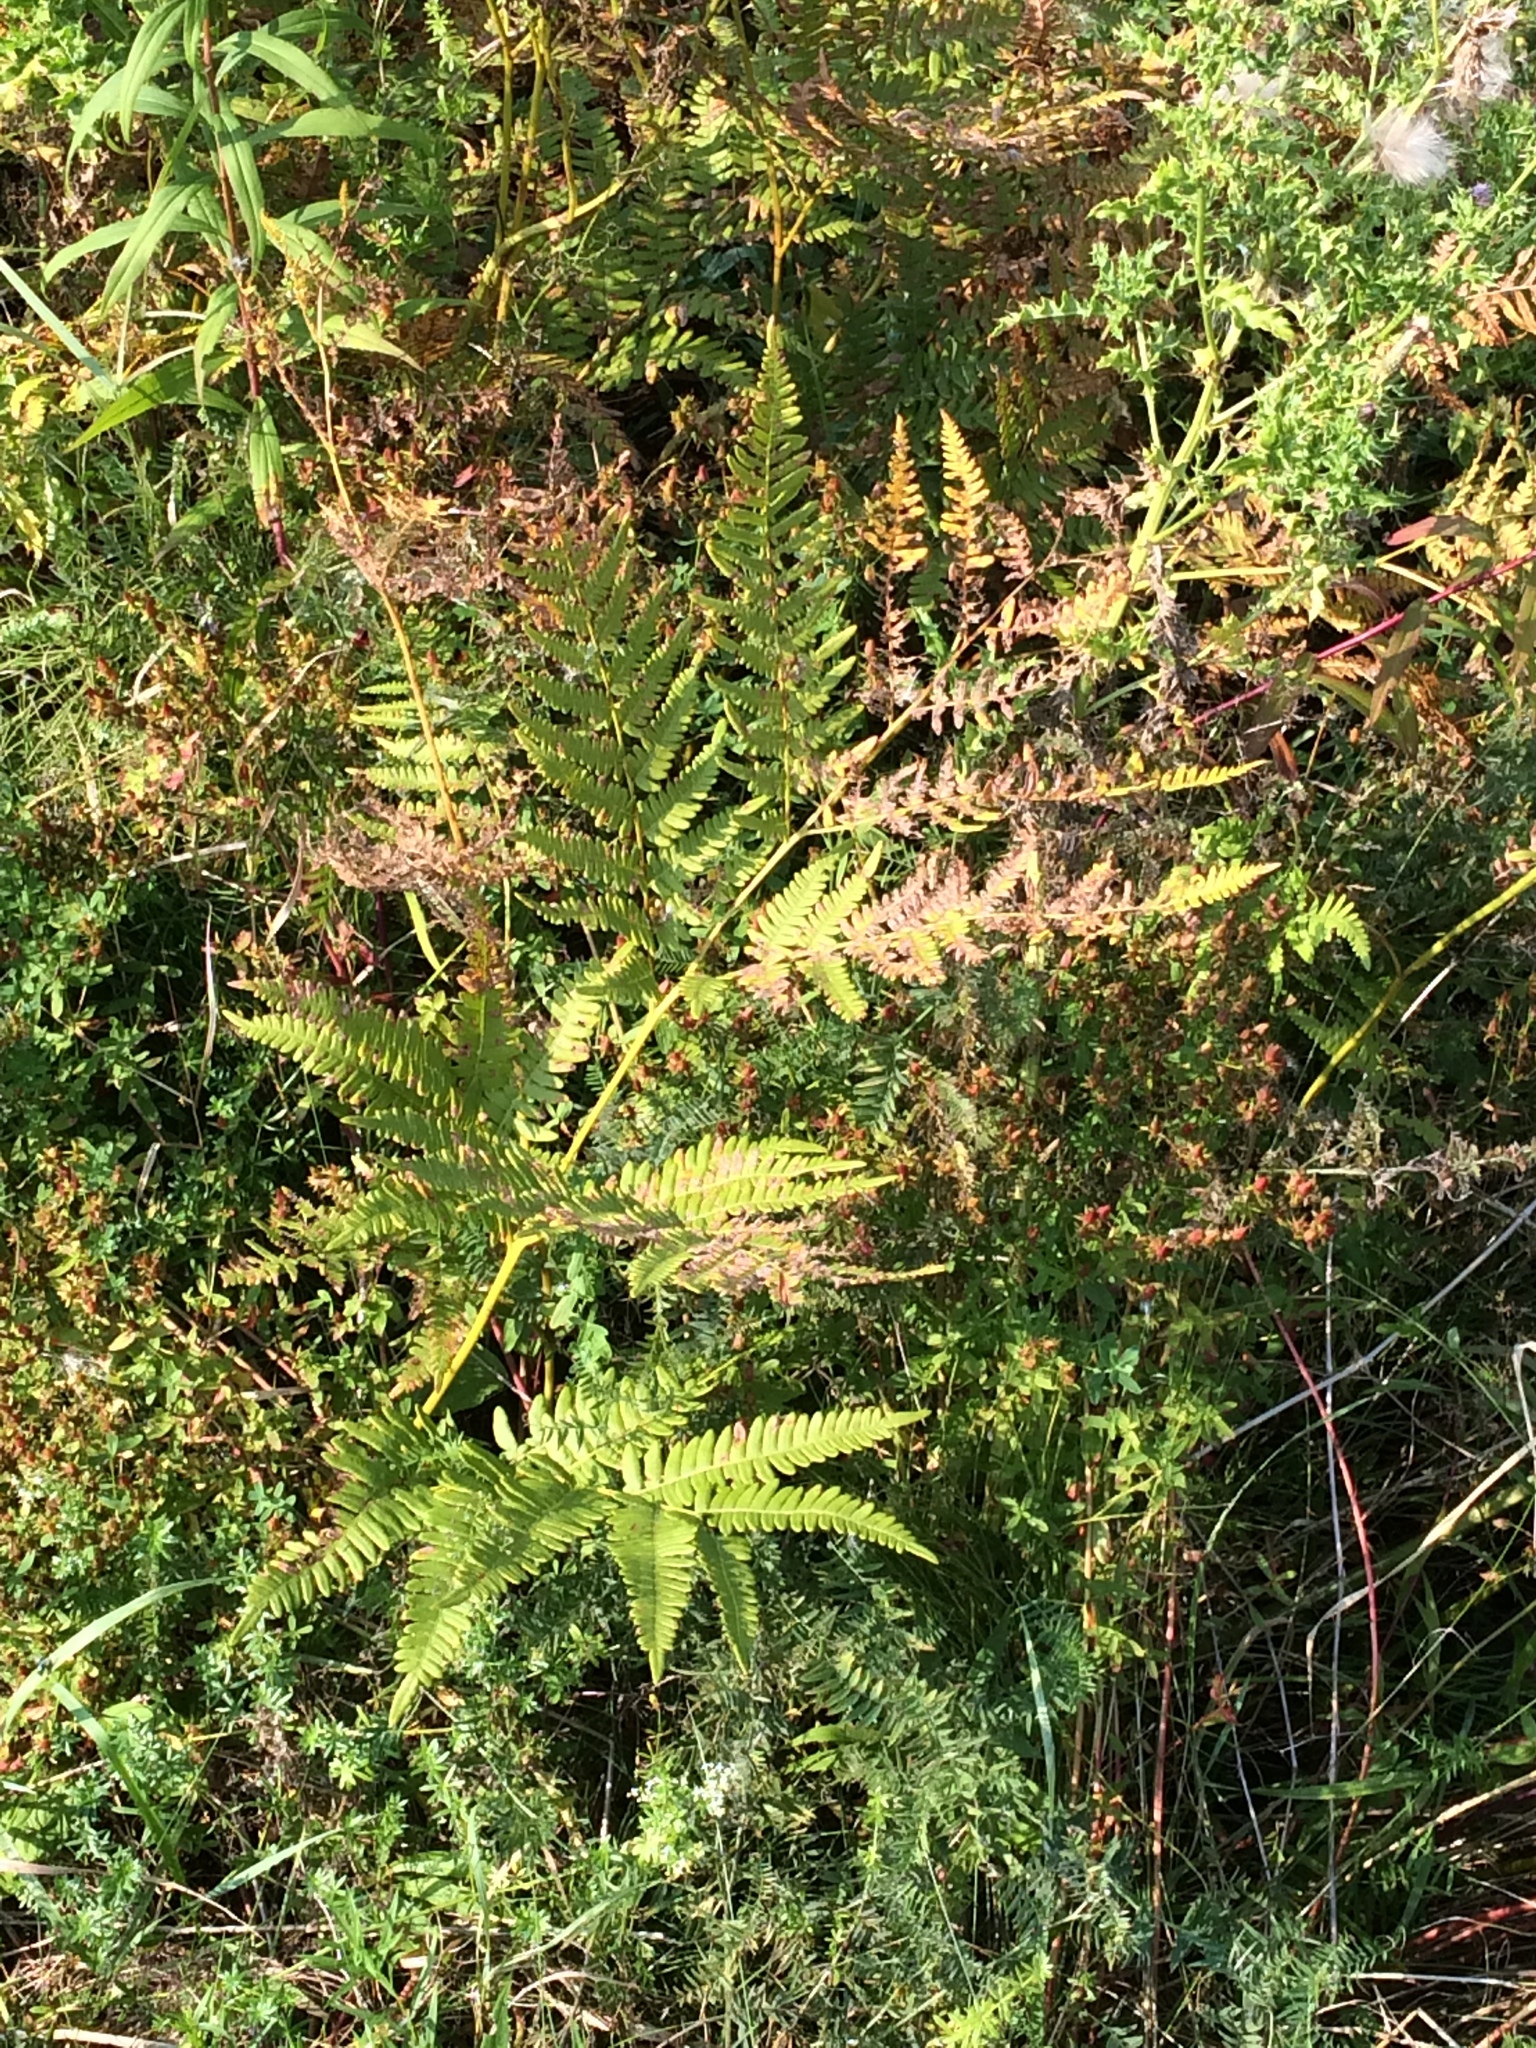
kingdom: Plantae
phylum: Tracheophyta
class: Polypodiopsida
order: Polypodiales
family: Dennstaedtiaceae
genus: Pteridium
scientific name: Pteridium aquilinum
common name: Bracken
